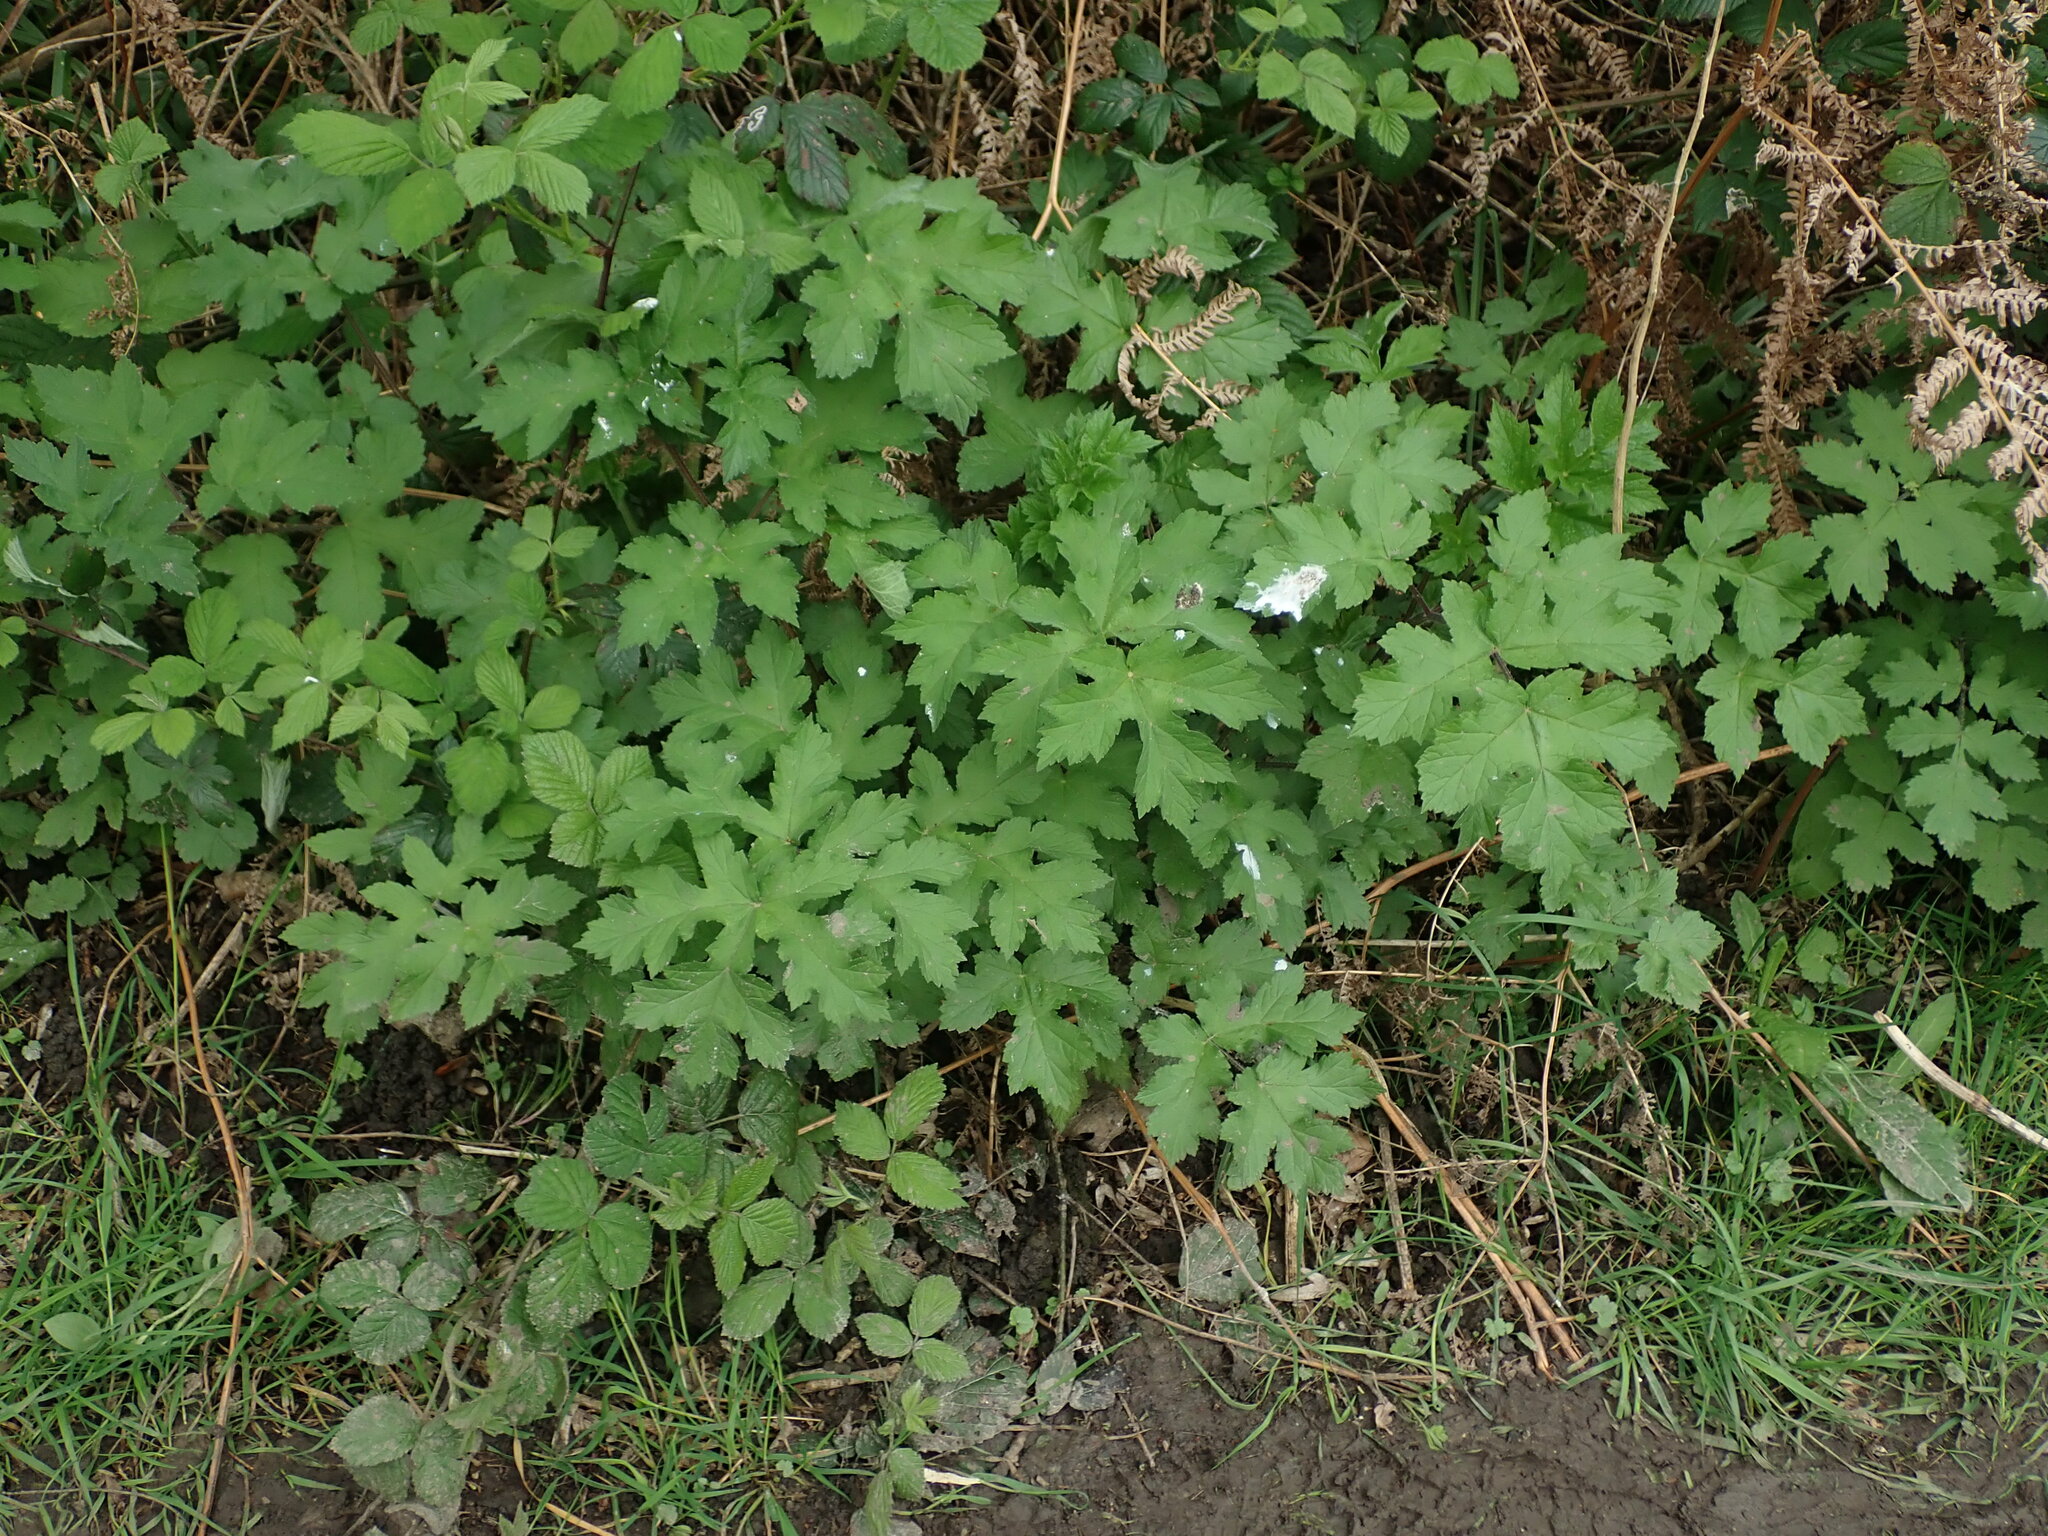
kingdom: Plantae
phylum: Tracheophyta
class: Magnoliopsida
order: Apiales
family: Apiaceae
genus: Heracleum
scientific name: Heracleum sphondylium
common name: Hogweed
